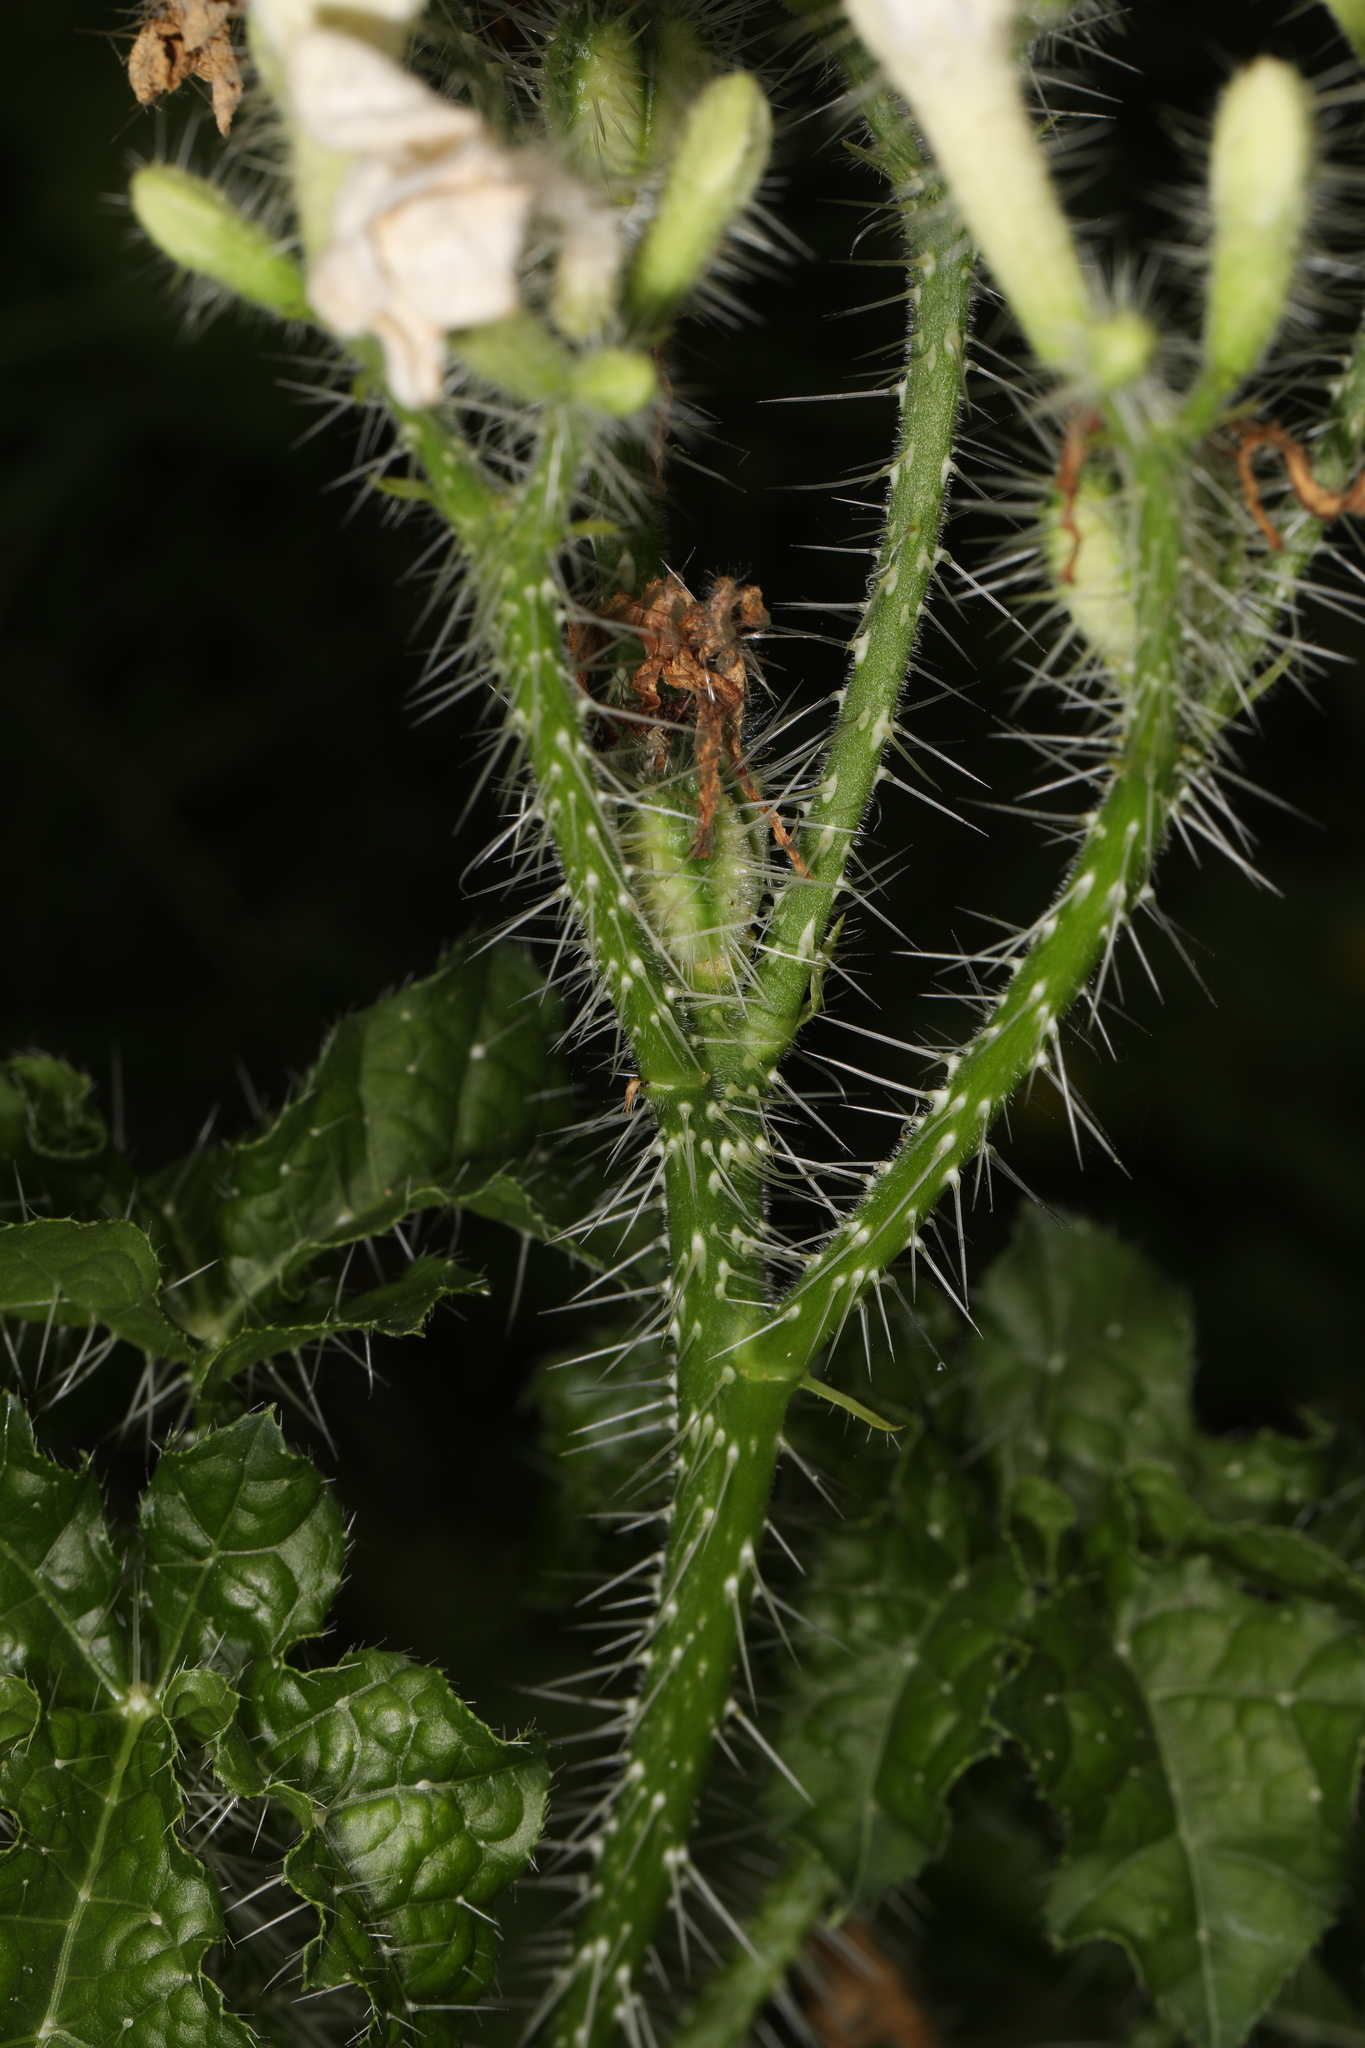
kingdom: Plantae
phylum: Tracheophyta
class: Magnoliopsida
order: Malpighiales
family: Euphorbiaceae
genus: Cnidoscolus
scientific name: Cnidoscolus texanus
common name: Texas bull-nettle
